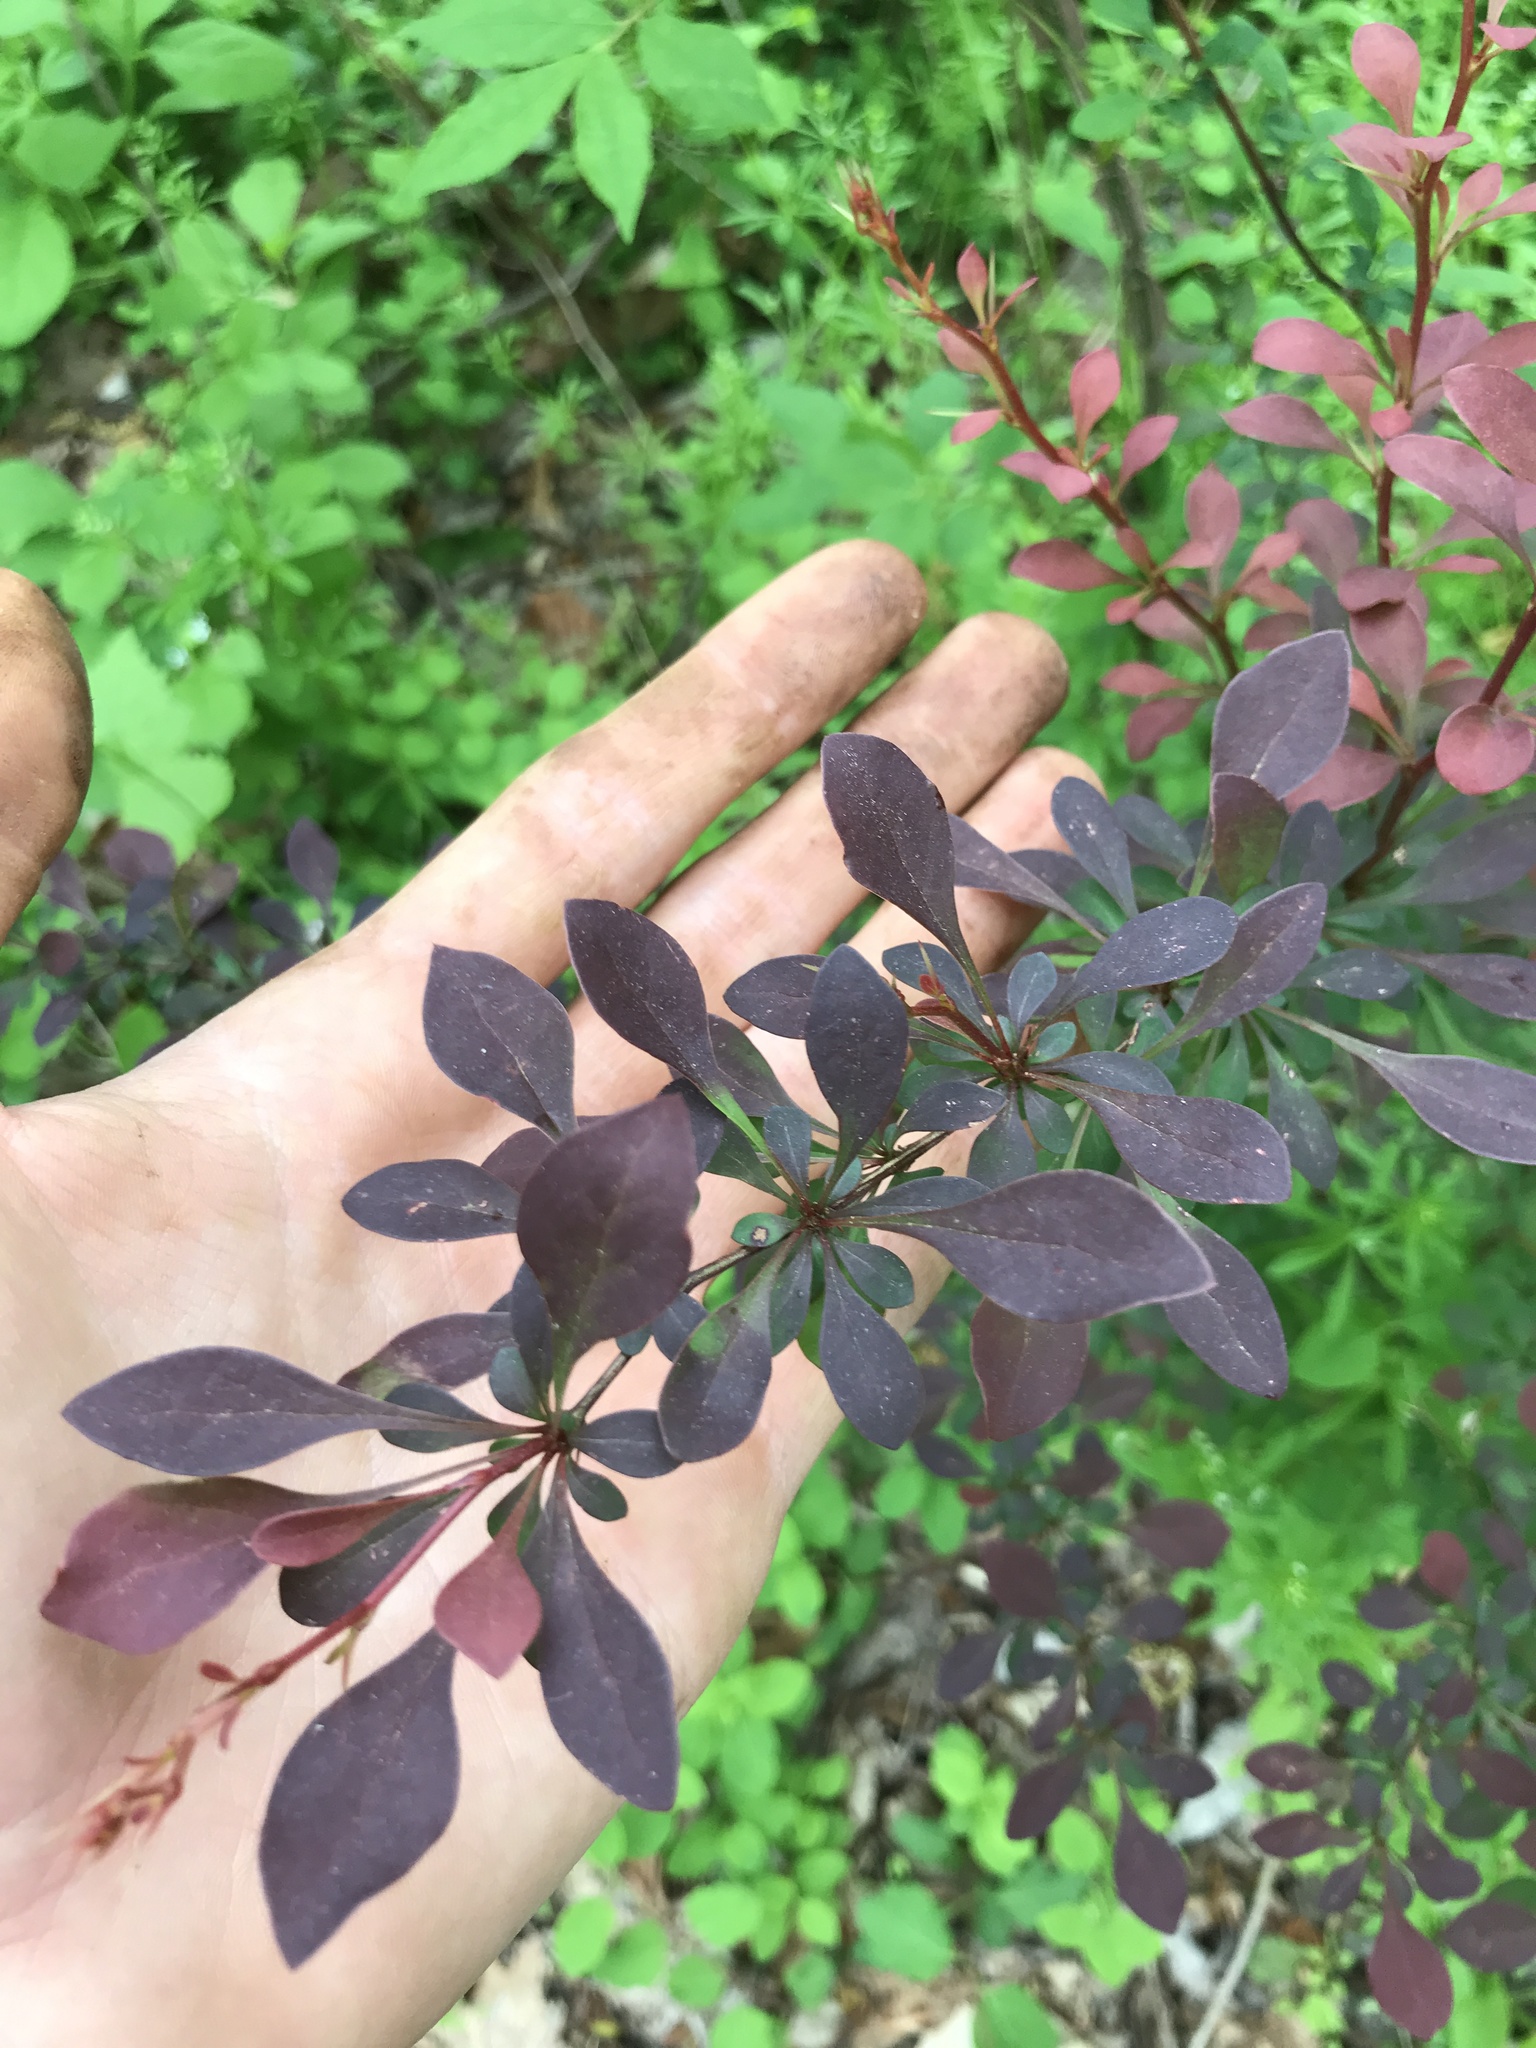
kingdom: Plantae
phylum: Tracheophyta
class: Magnoliopsida
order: Ranunculales
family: Berberidaceae
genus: Berberis
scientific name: Berberis thunbergii
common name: Japanese barberry
